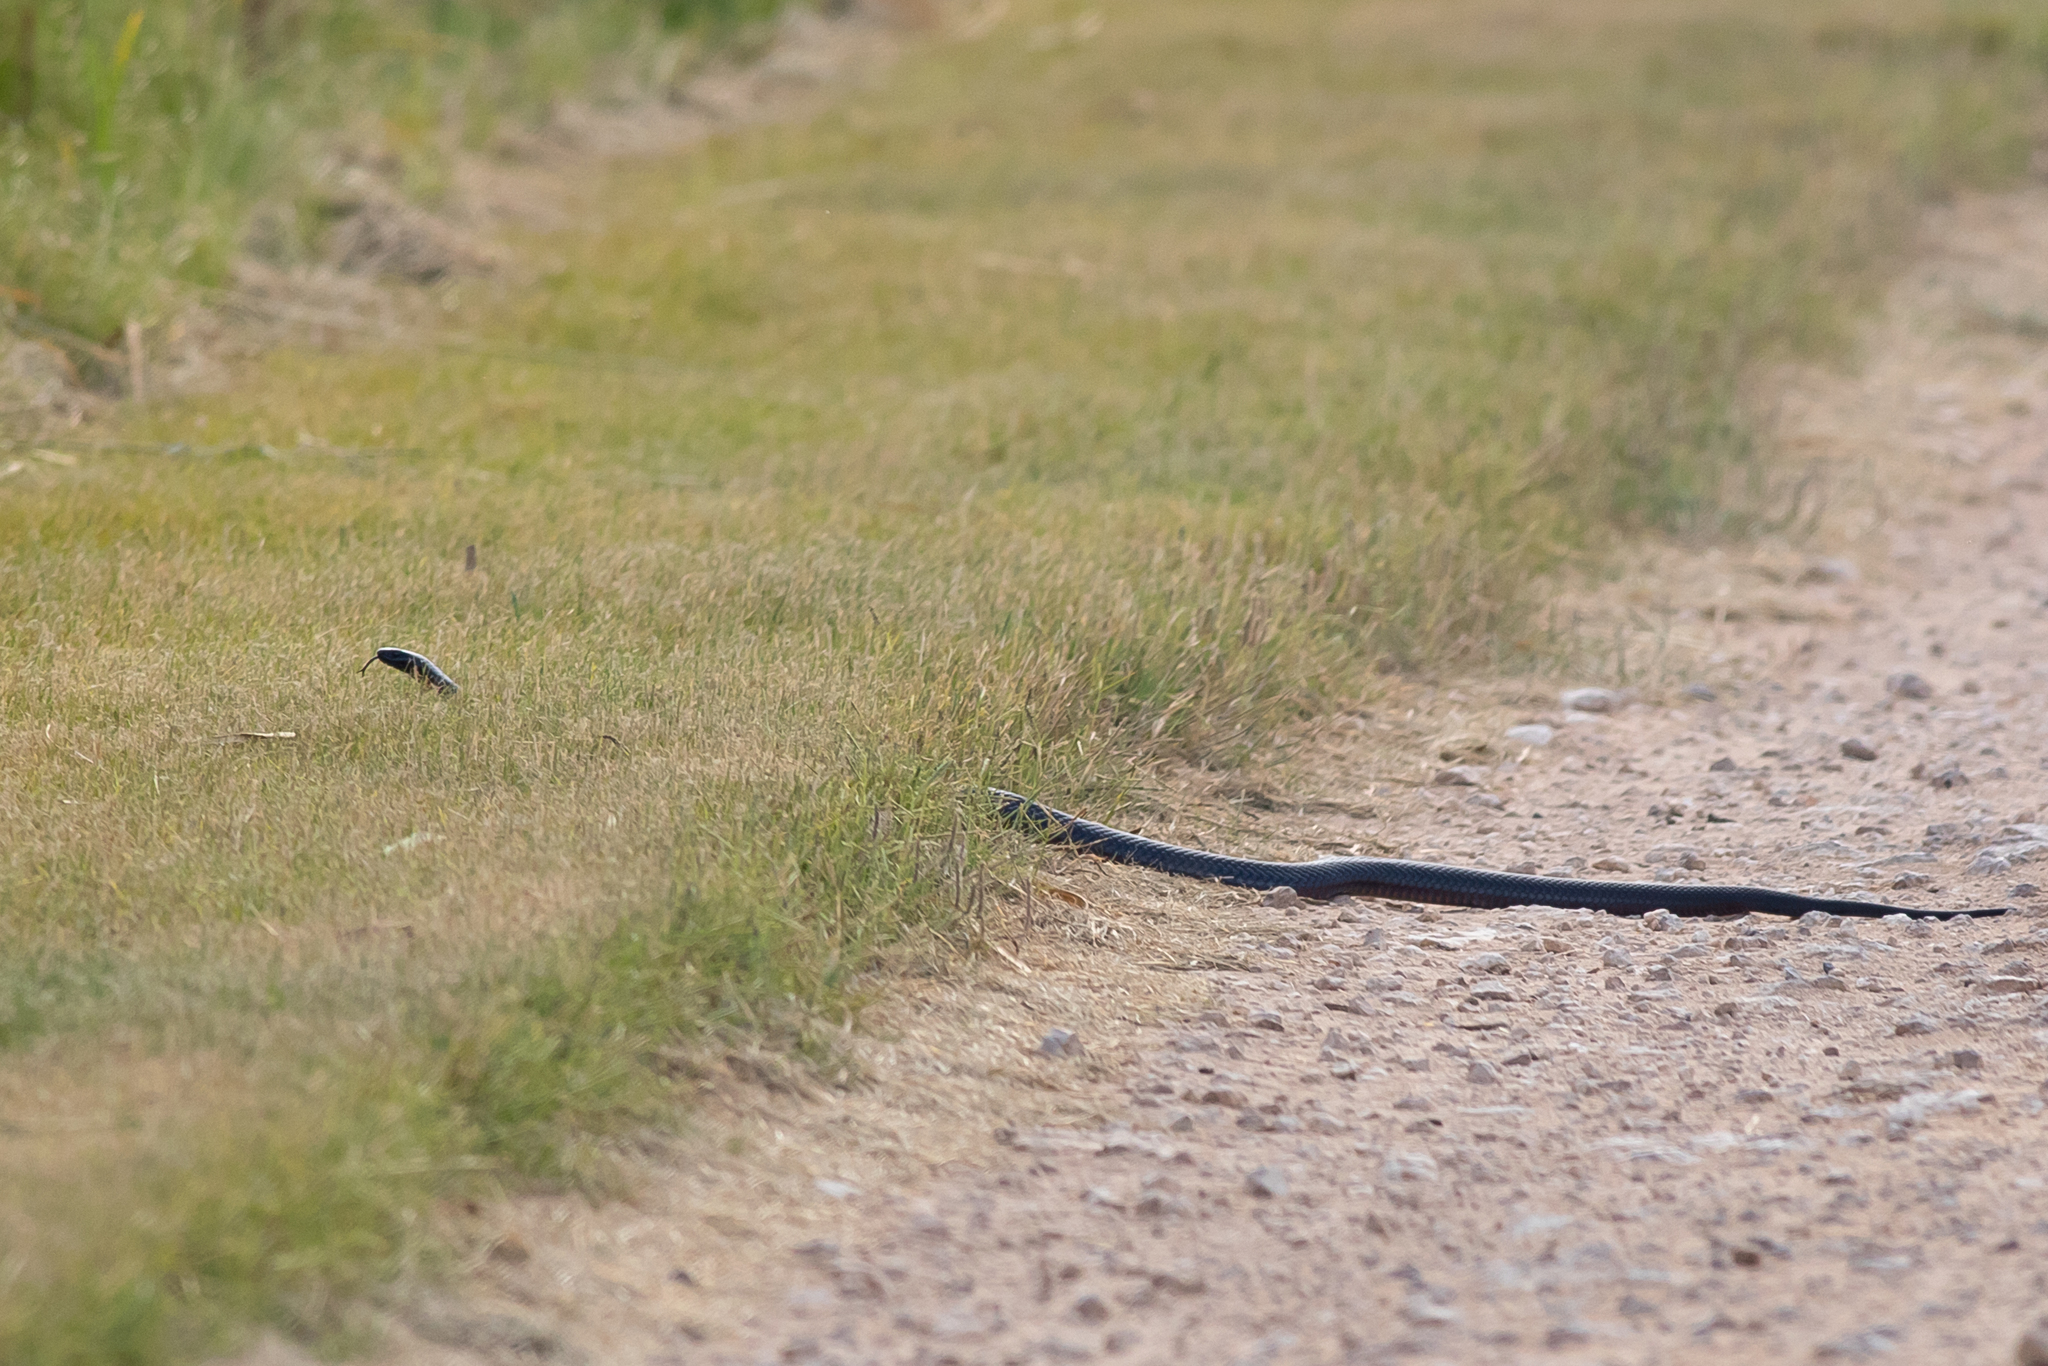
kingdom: Animalia
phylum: Chordata
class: Squamata
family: Elapidae
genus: Pseudechis
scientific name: Pseudechis porphyriacus
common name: Australian black snake
